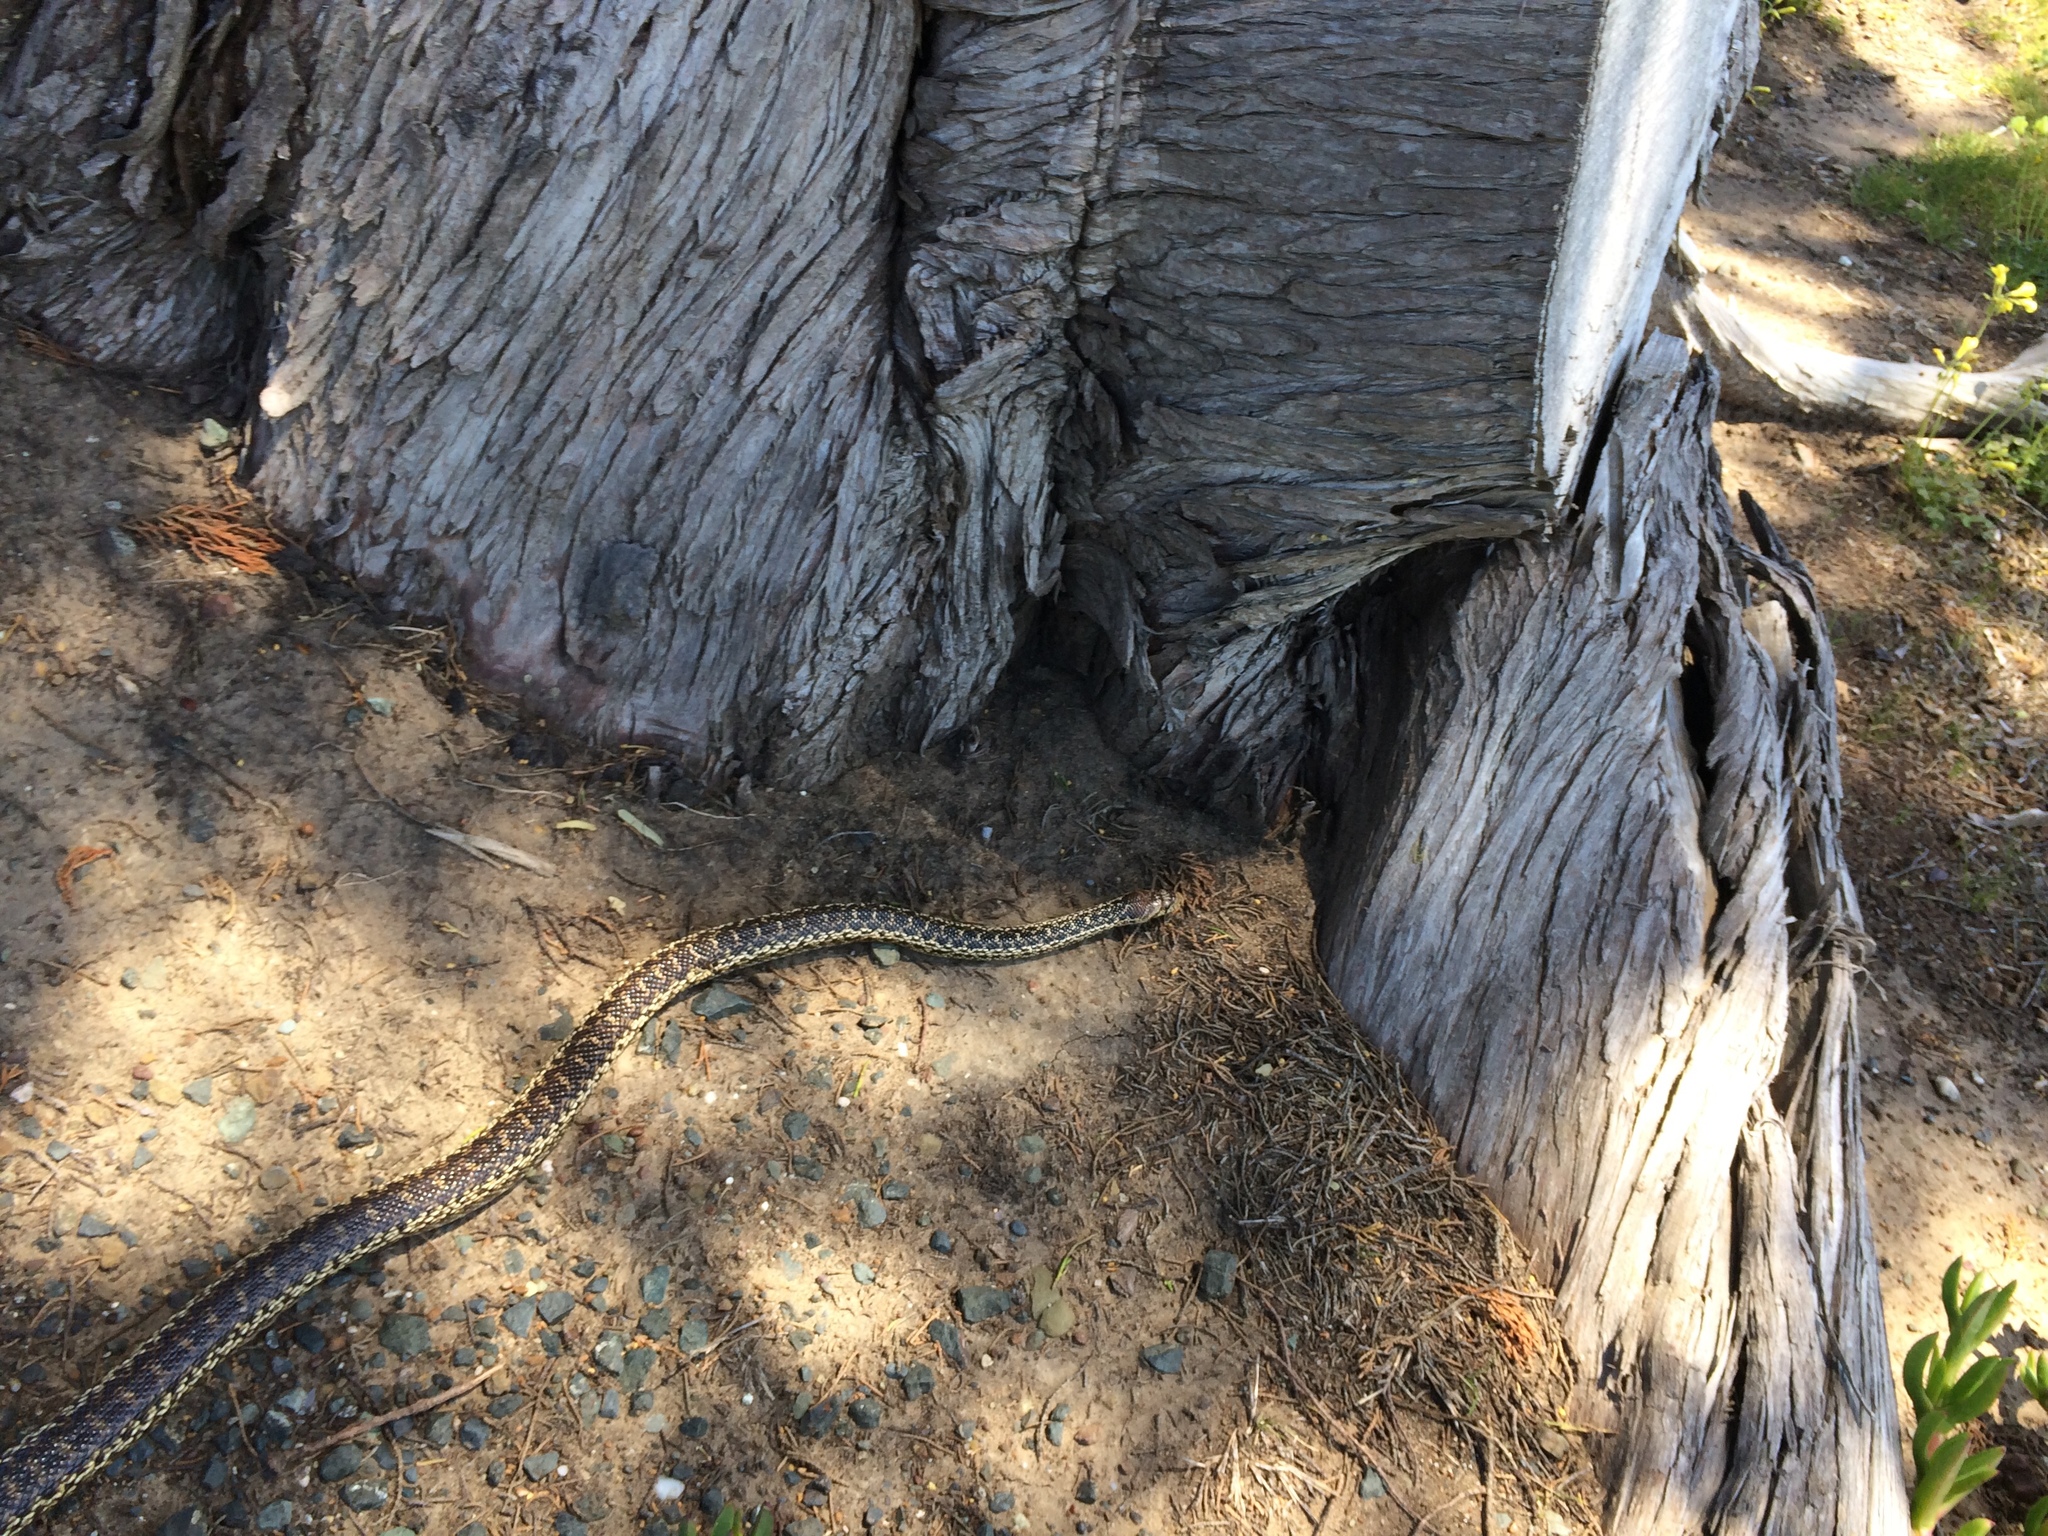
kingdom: Animalia
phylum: Chordata
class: Squamata
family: Colubridae
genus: Pituophis
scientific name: Pituophis catenifer
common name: Gopher snake
